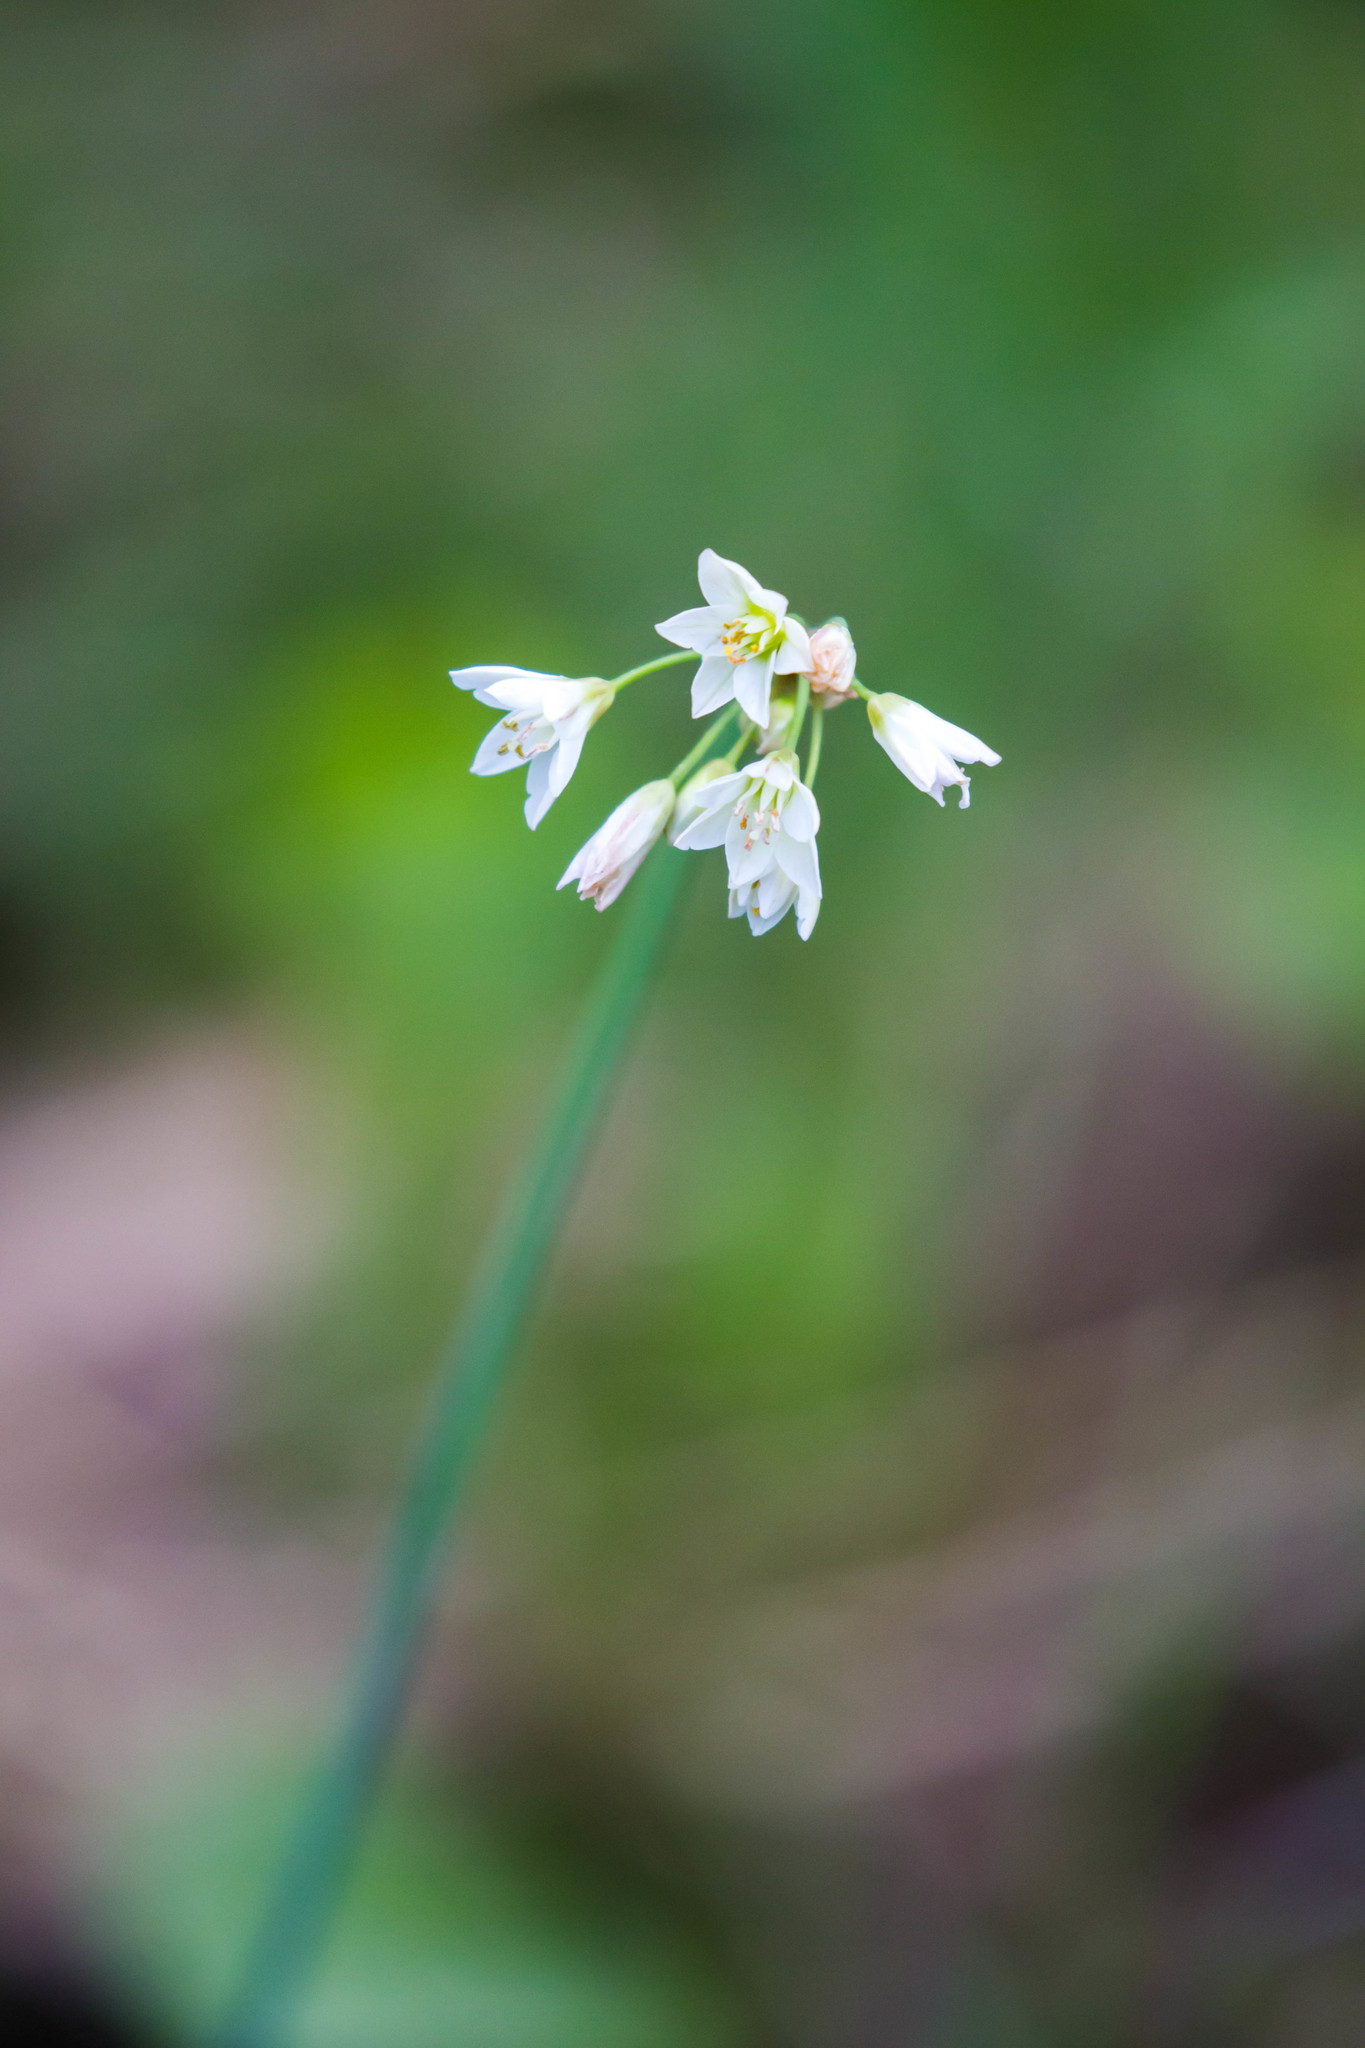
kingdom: Plantae
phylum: Tracheophyta
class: Liliopsida
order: Asparagales
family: Amaryllidaceae
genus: Nothoscordum
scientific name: Nothoscordum gracile
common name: Slender false garlic
